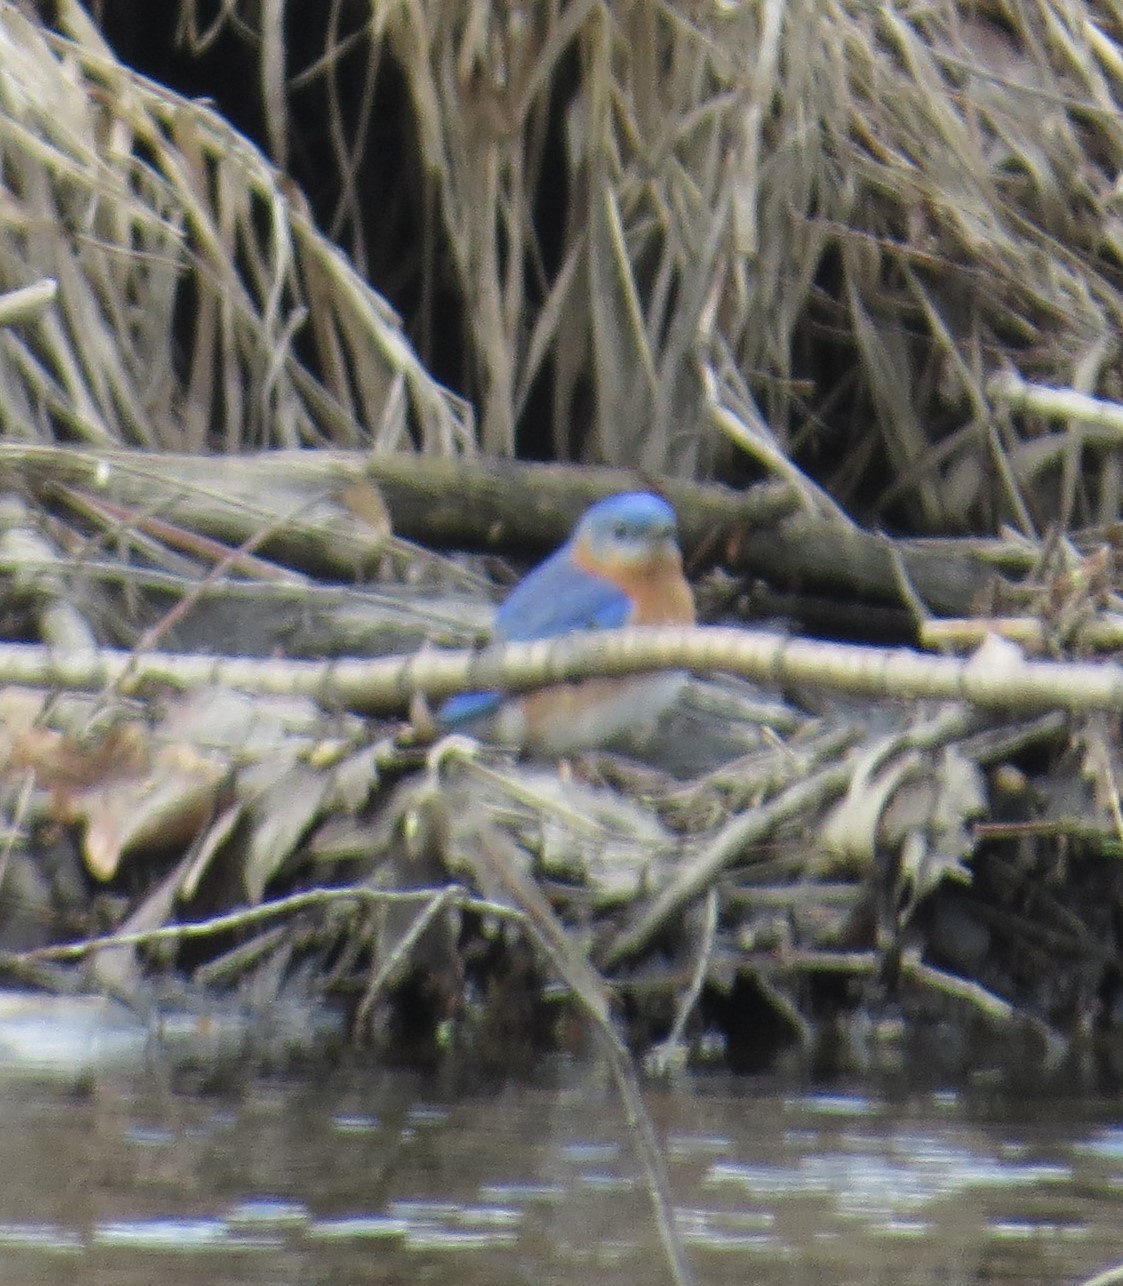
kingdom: Animalia
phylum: Chordata
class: Aves
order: Passeriformes
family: Turdidae
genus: Sialia
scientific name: Sialia sialis
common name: Eastern bluebird
